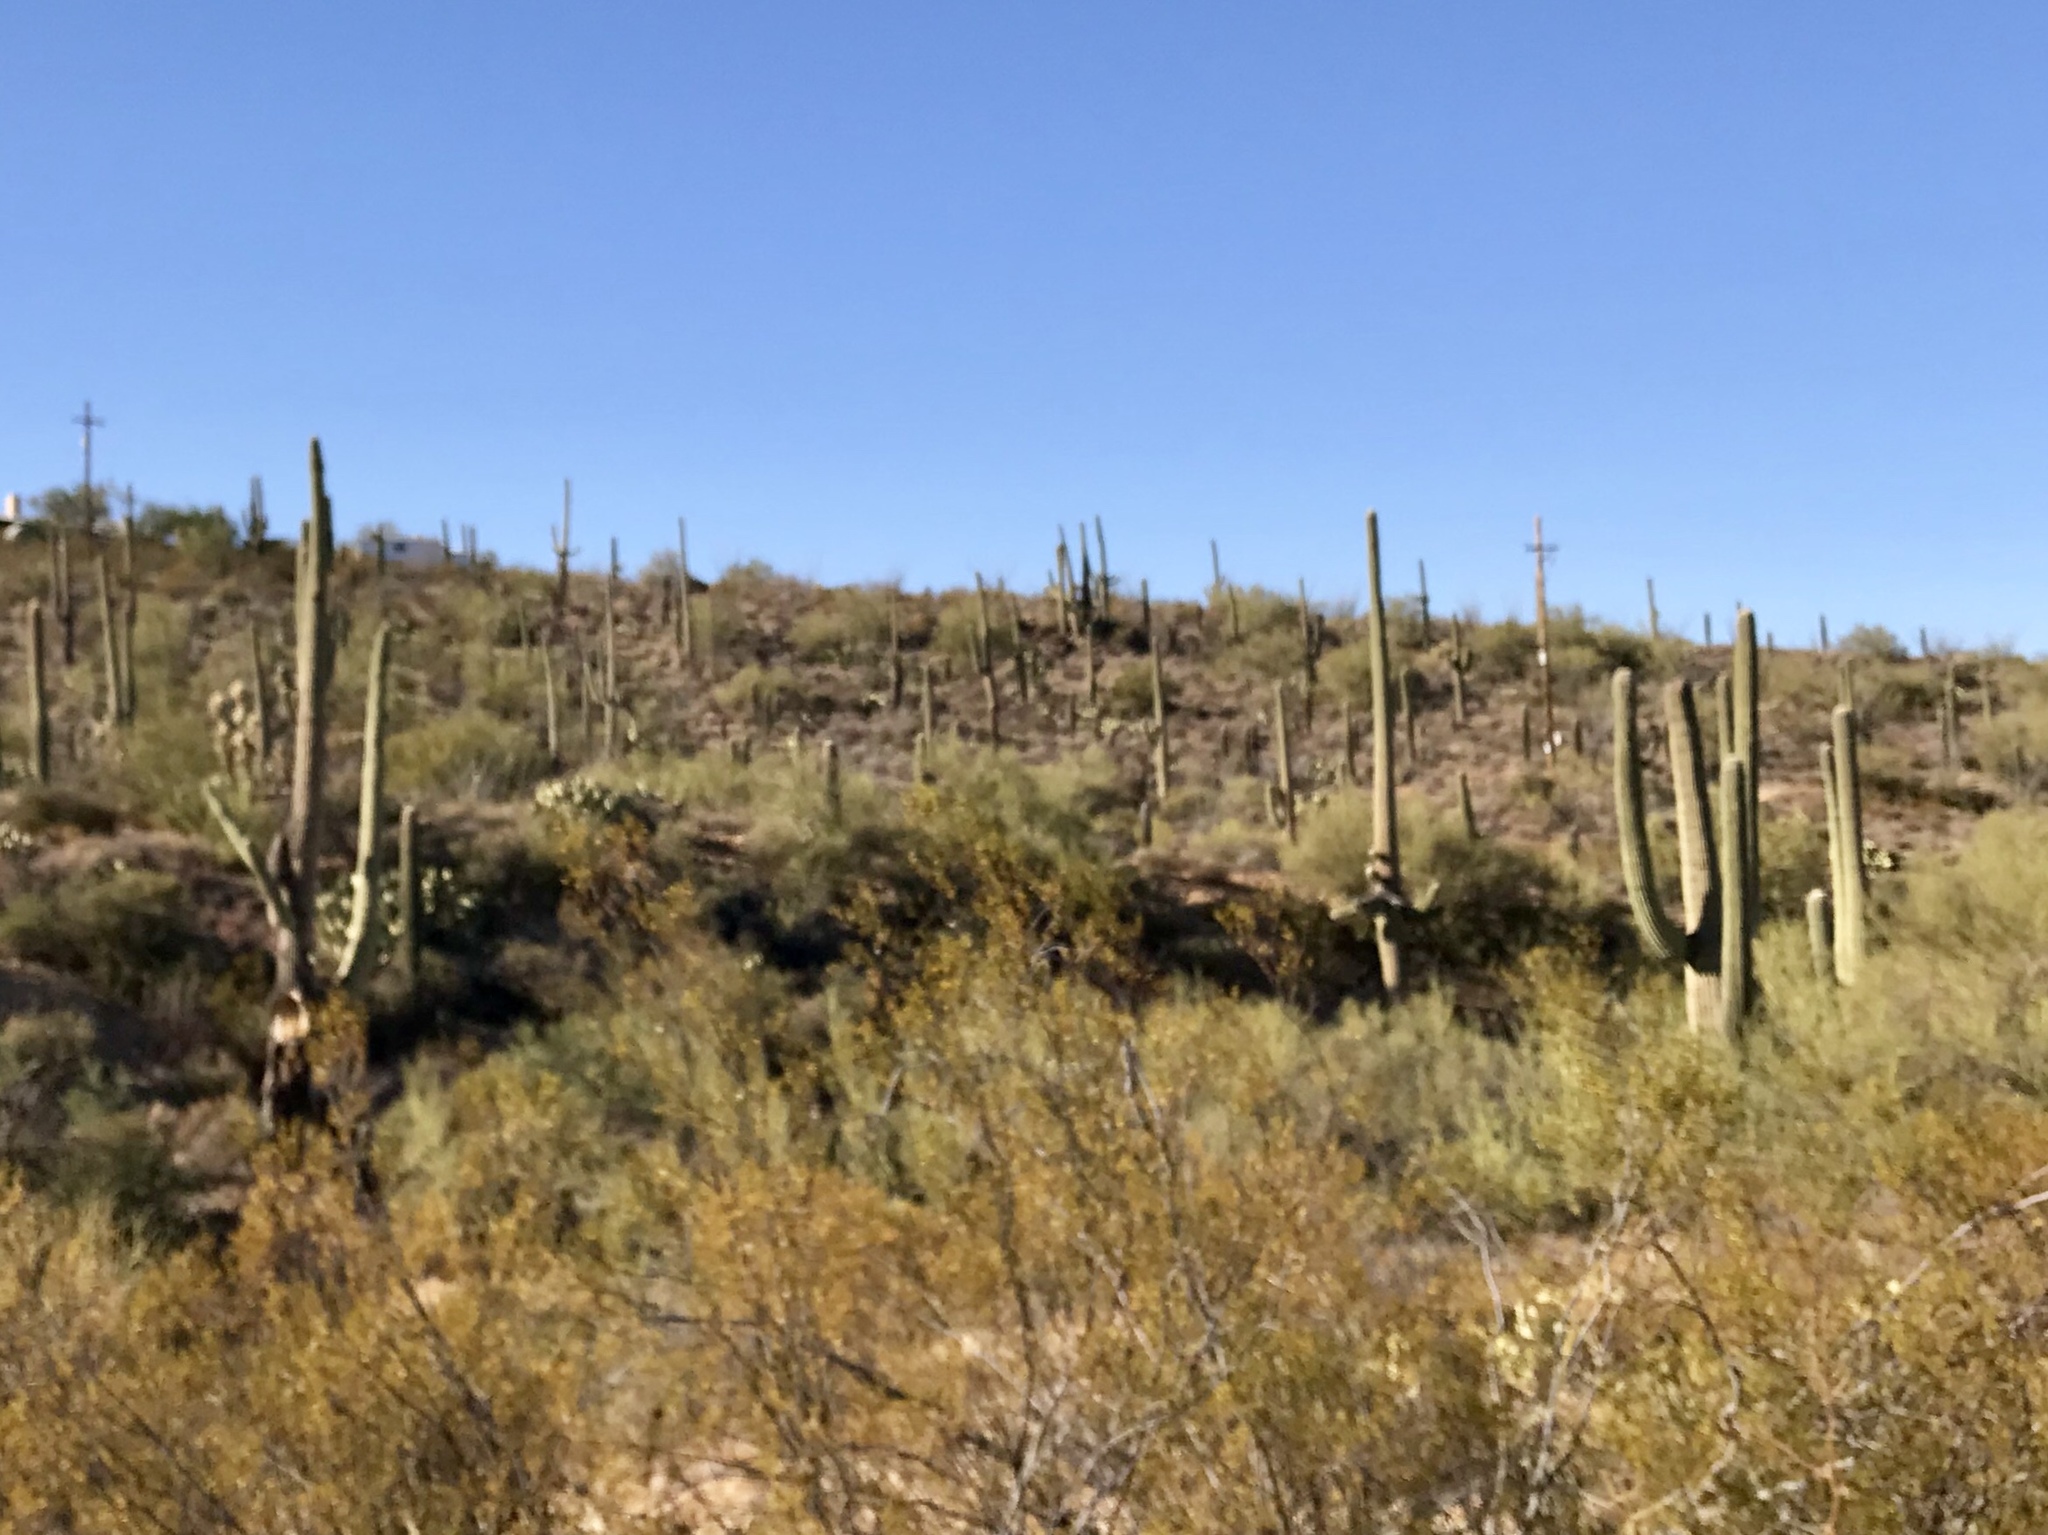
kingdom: Plantae
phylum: Tracheophyta
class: Magnoliopsida
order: Caryophyllales
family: Cactaceae
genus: Carnegiea
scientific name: Carnegiea gigantea
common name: Saguaro
